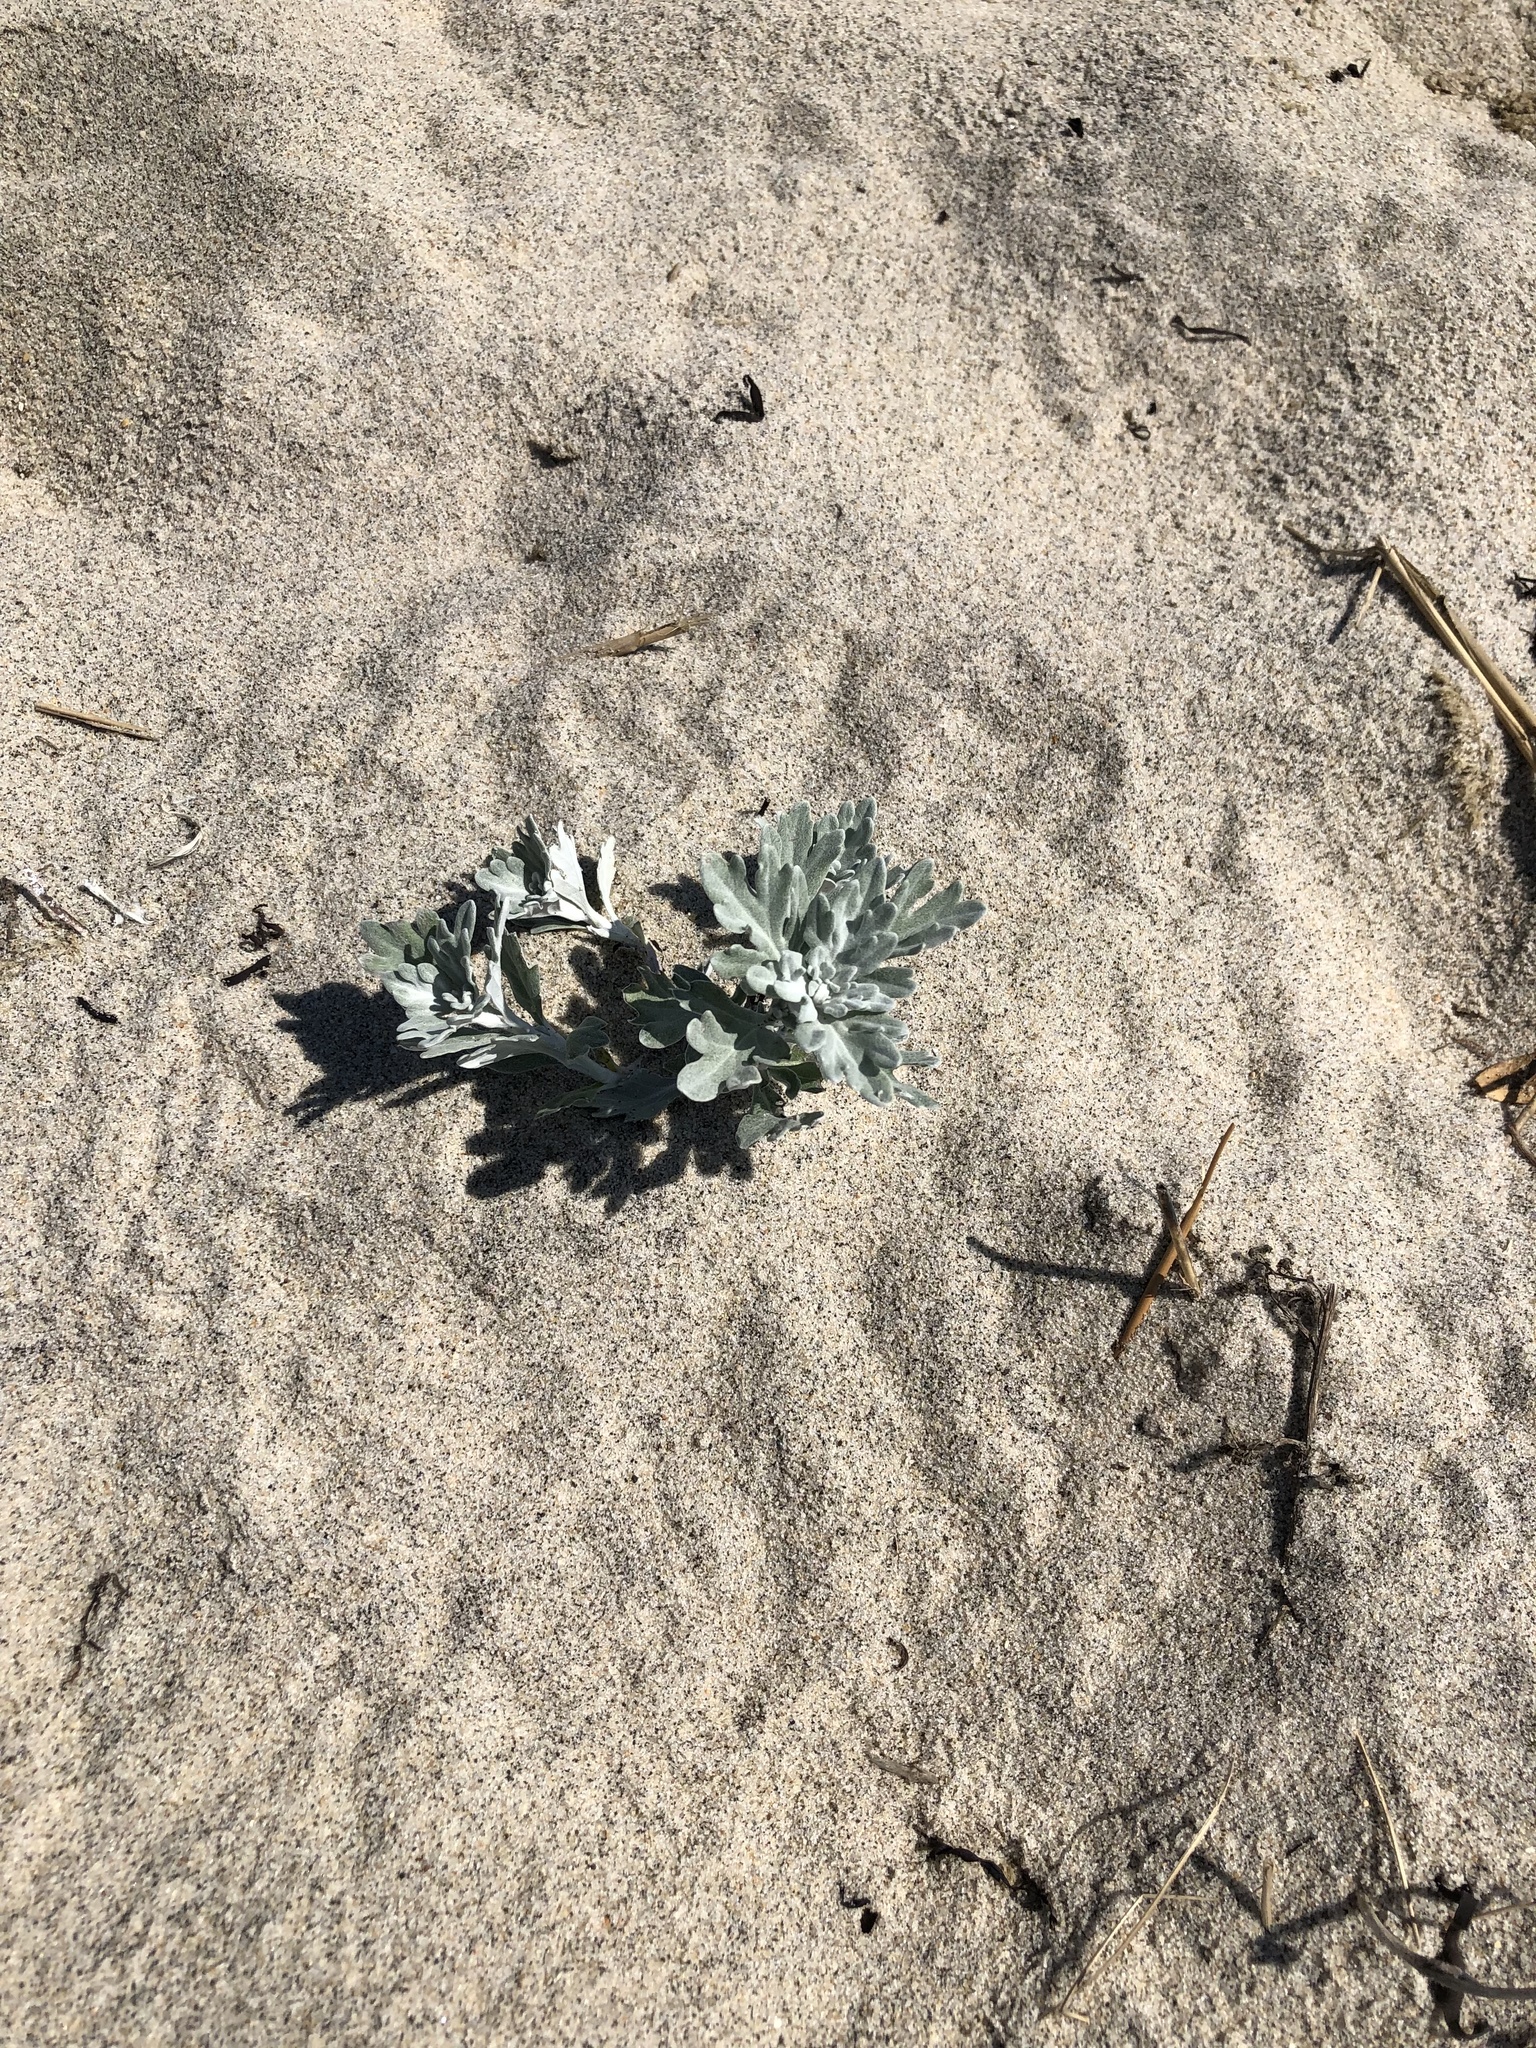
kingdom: Plantae
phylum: Tracheophyta
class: Magnoliopsida
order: Asterales
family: Asteraceae
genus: Artemisia
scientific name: Artemisia stelleriana
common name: Beach wormwood
